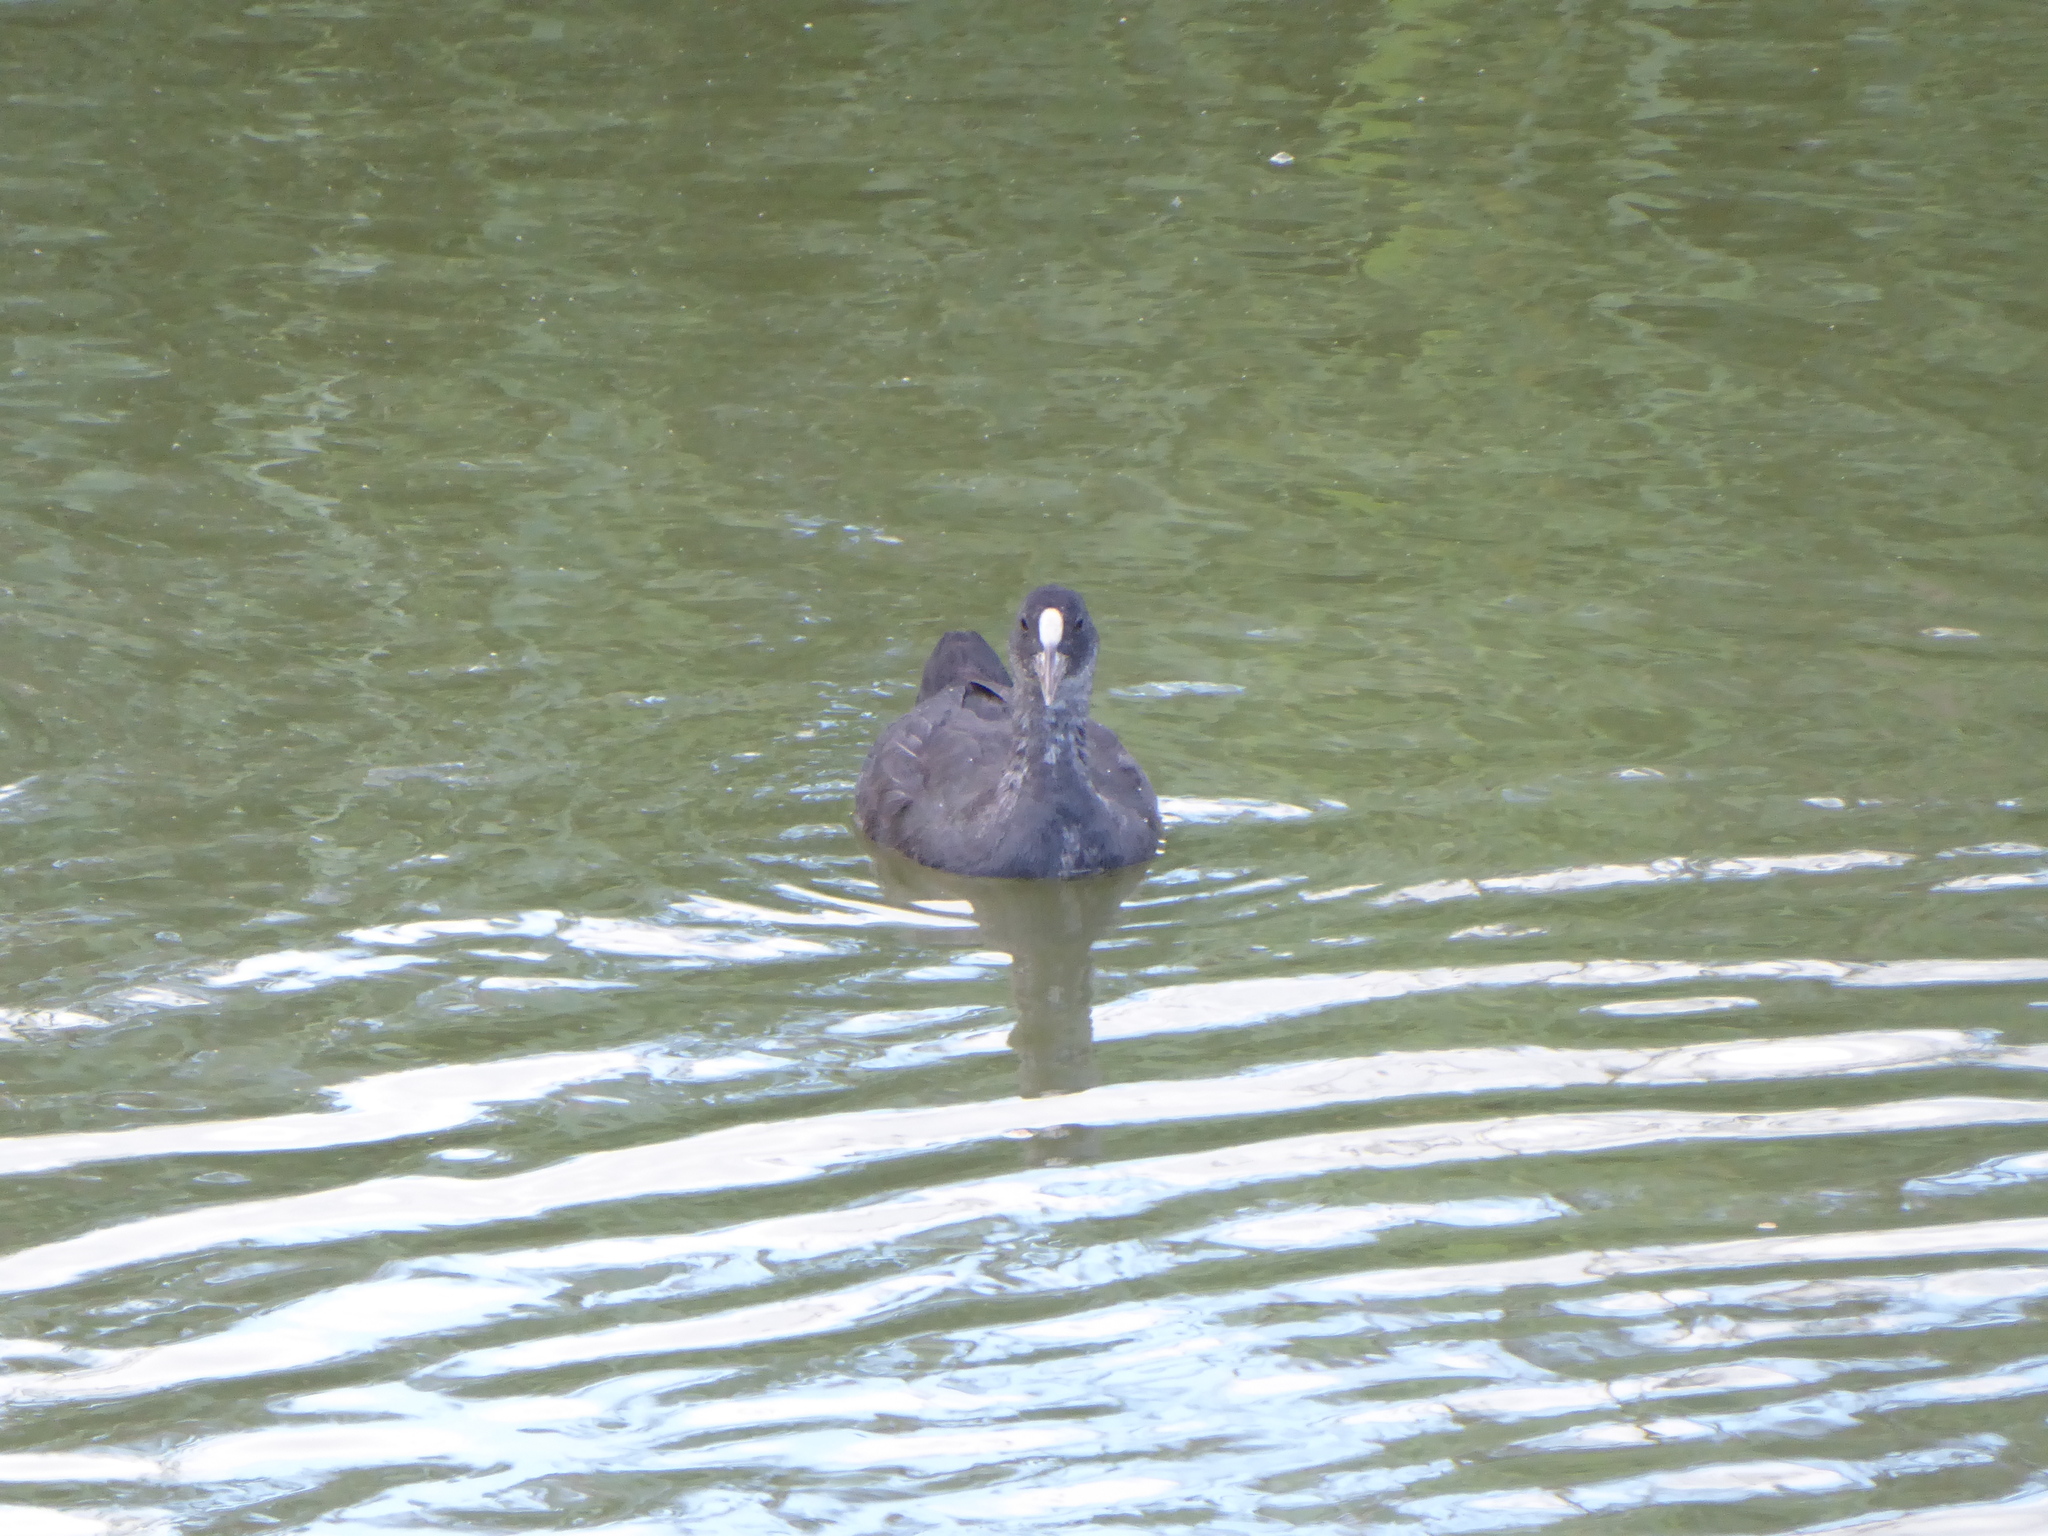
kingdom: Animalia
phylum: Chordata
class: Aves
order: Gruiformes
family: Rallidae
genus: Fulica
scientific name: Fulica atra
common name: Eurasian coot
